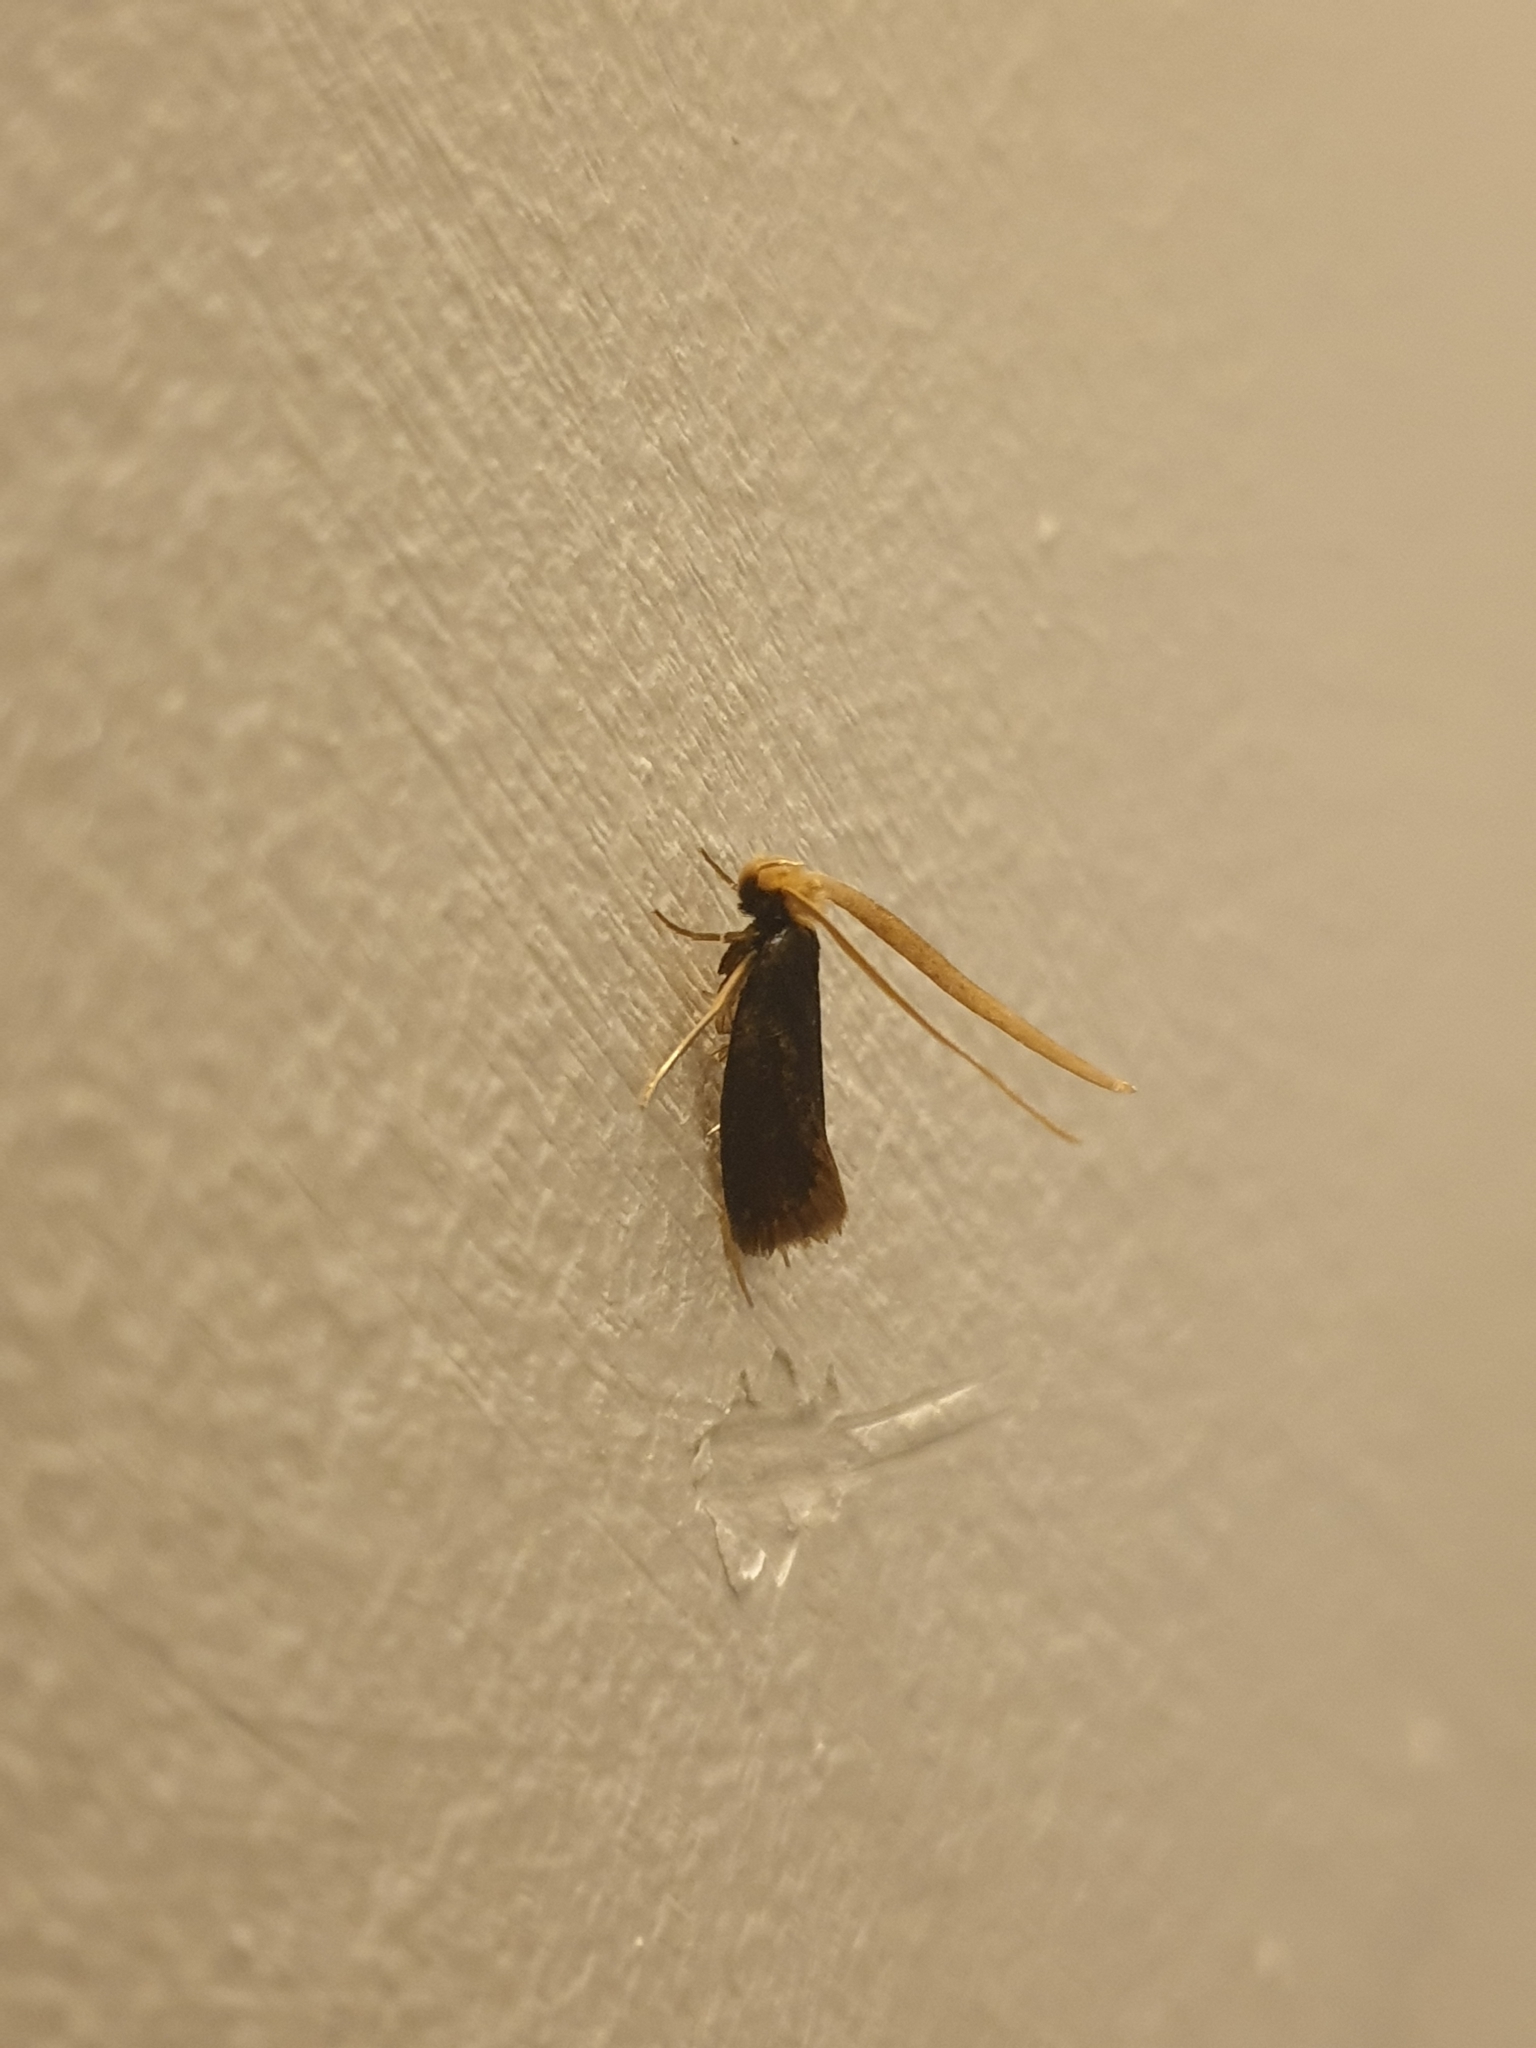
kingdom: Animalia
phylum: Arthropoda
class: Insecta
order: Lepidoptera
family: Tineidae
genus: Edosa
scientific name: Edosa
